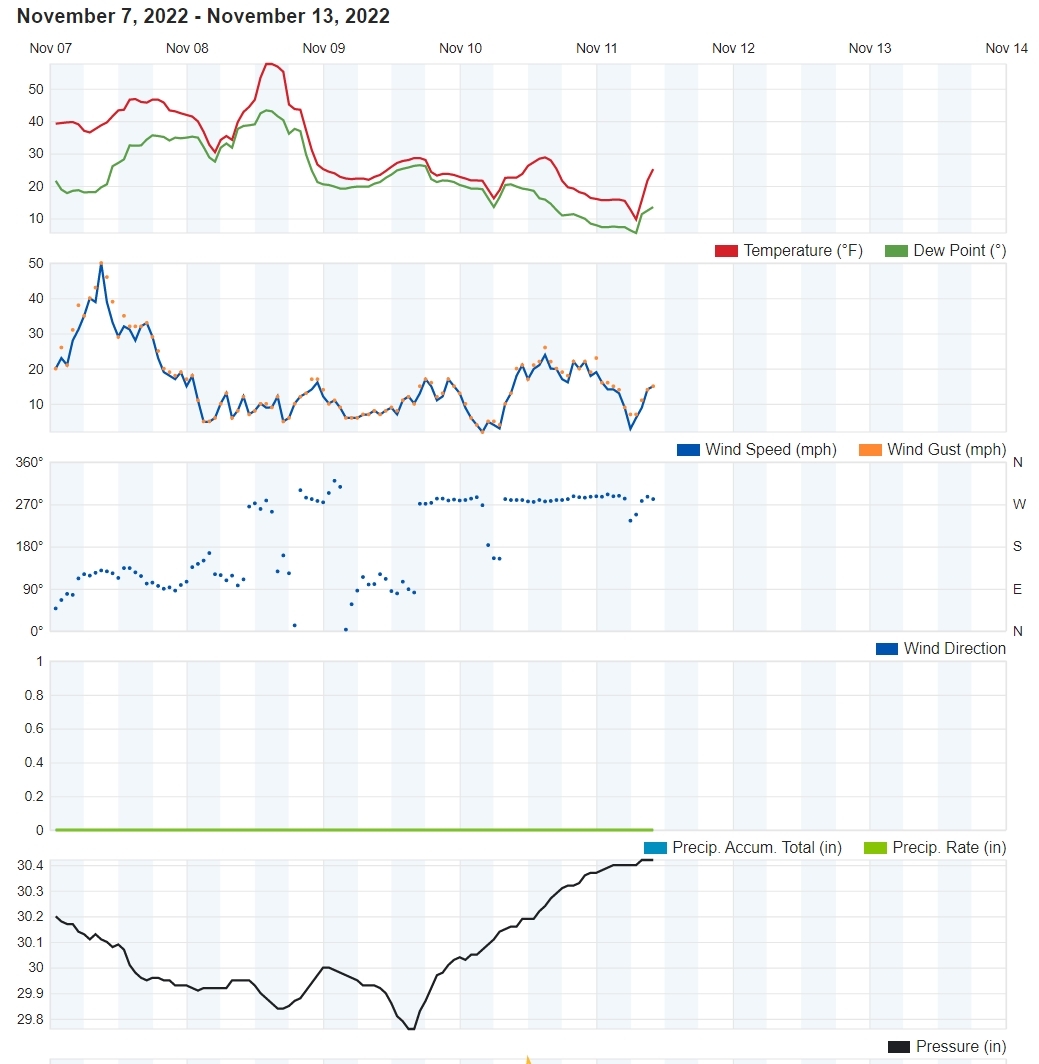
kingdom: Animalia
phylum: Chordata
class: Aves
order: Apodiformes
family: Trochilidae
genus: Calypte
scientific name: Calypte anna
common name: Anna's hummingbird
